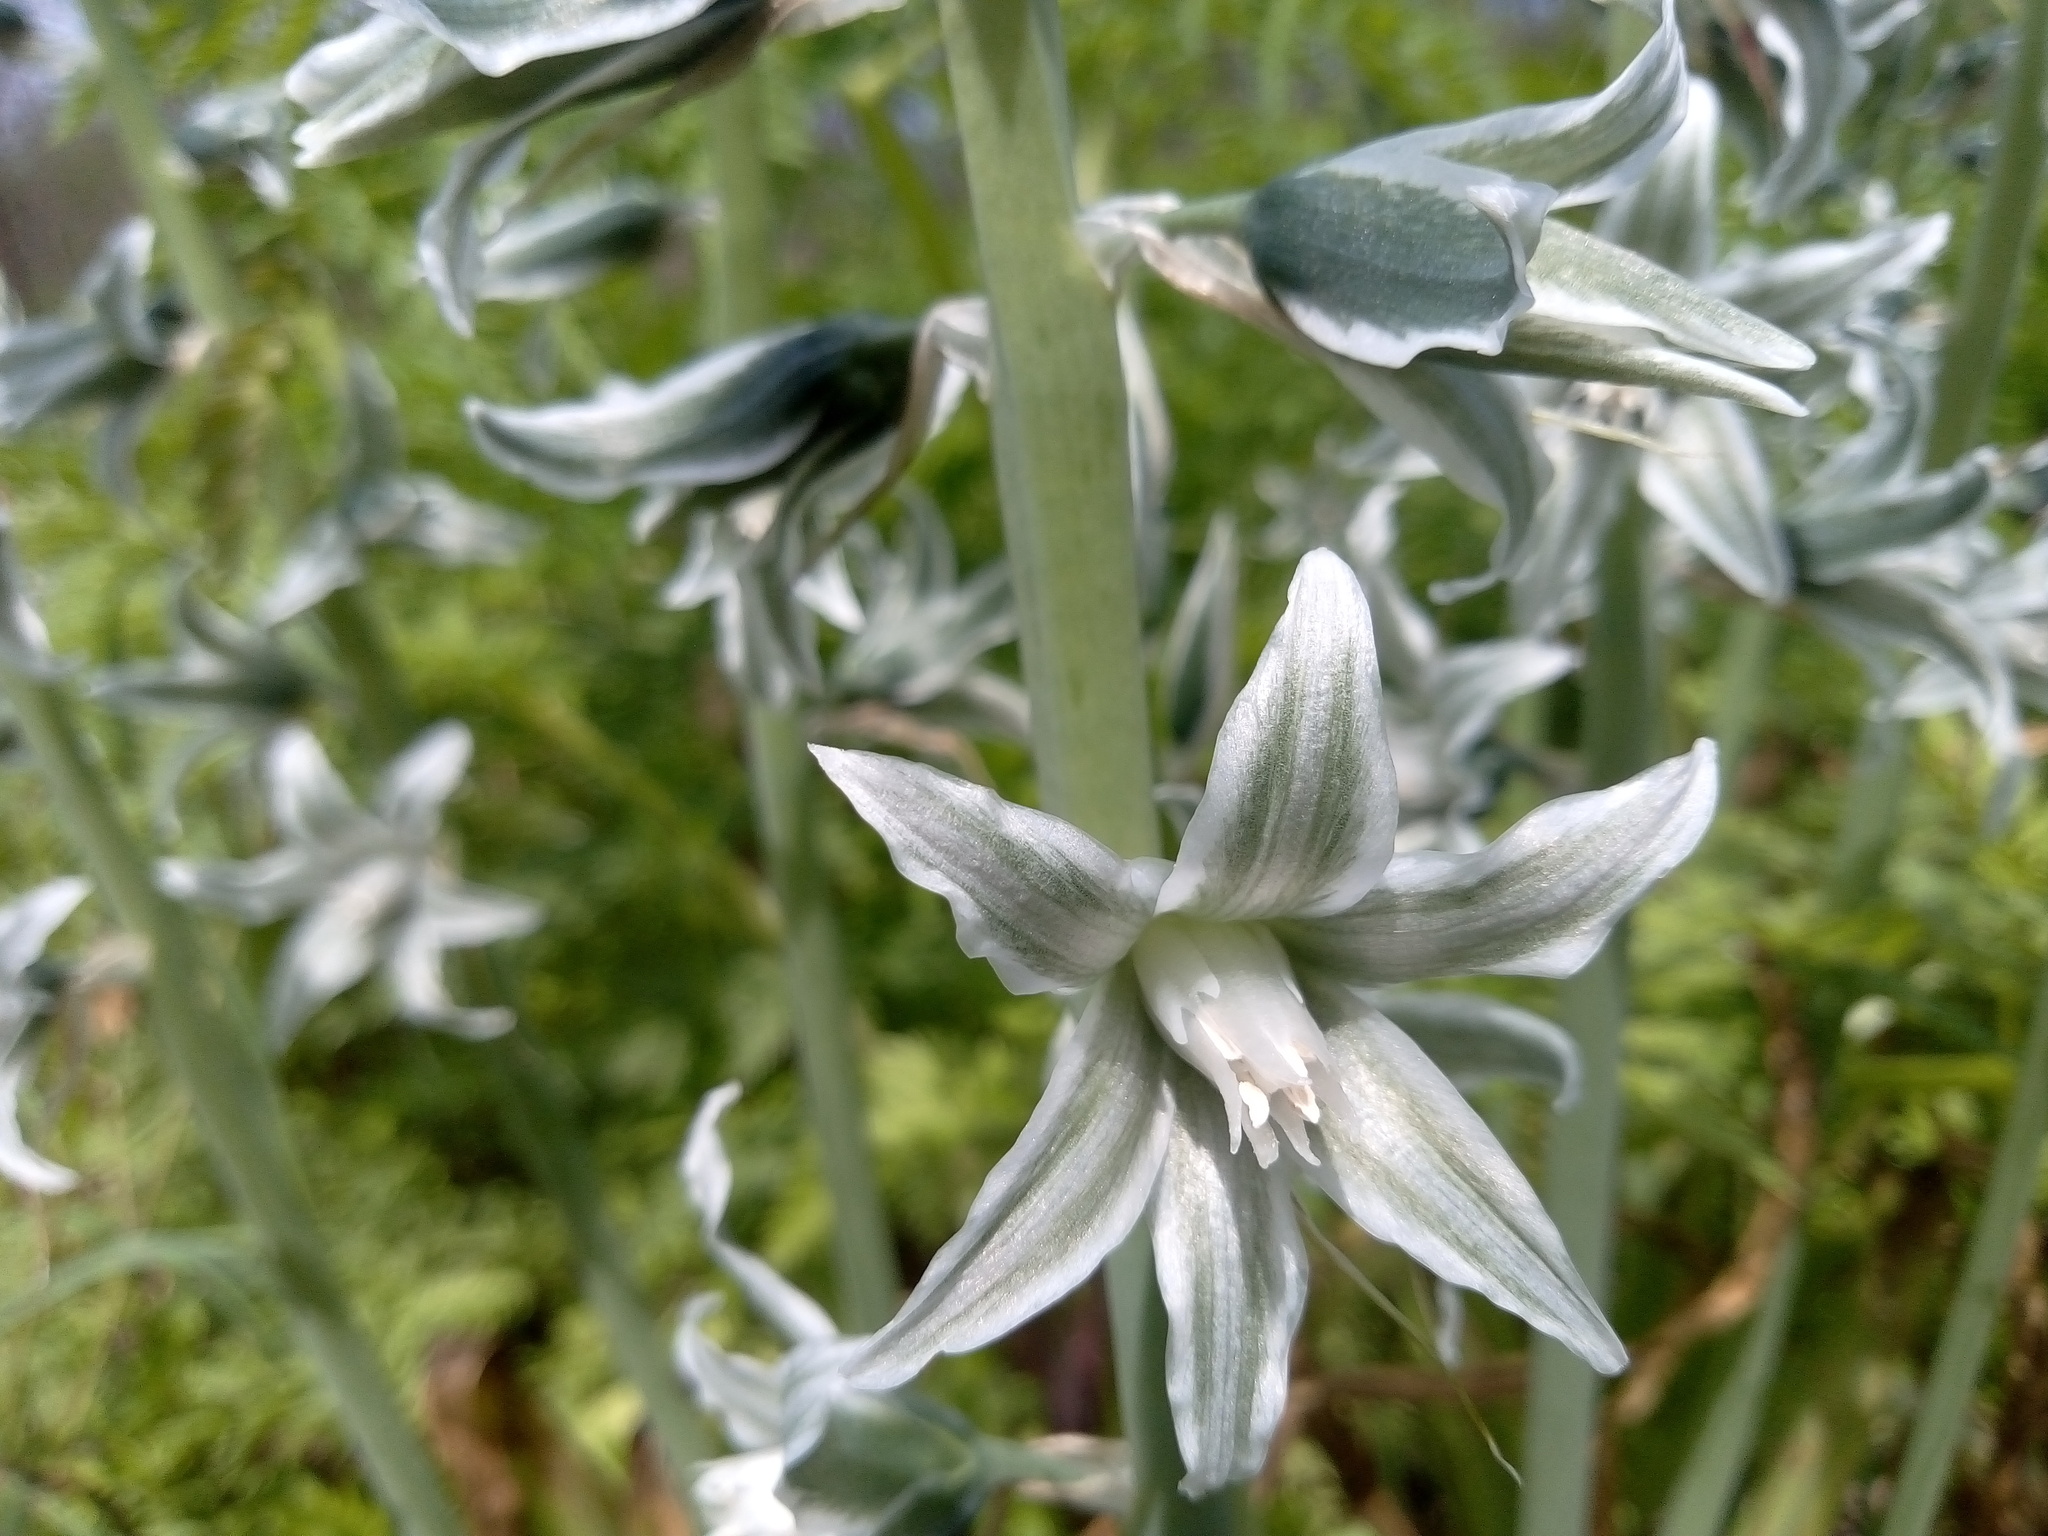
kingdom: Plantae
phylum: Tracheophyta
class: Liliopsida
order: Asparagales
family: Asparagaceae
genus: Ornithogalum
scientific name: Ornithogalum boucheanum
